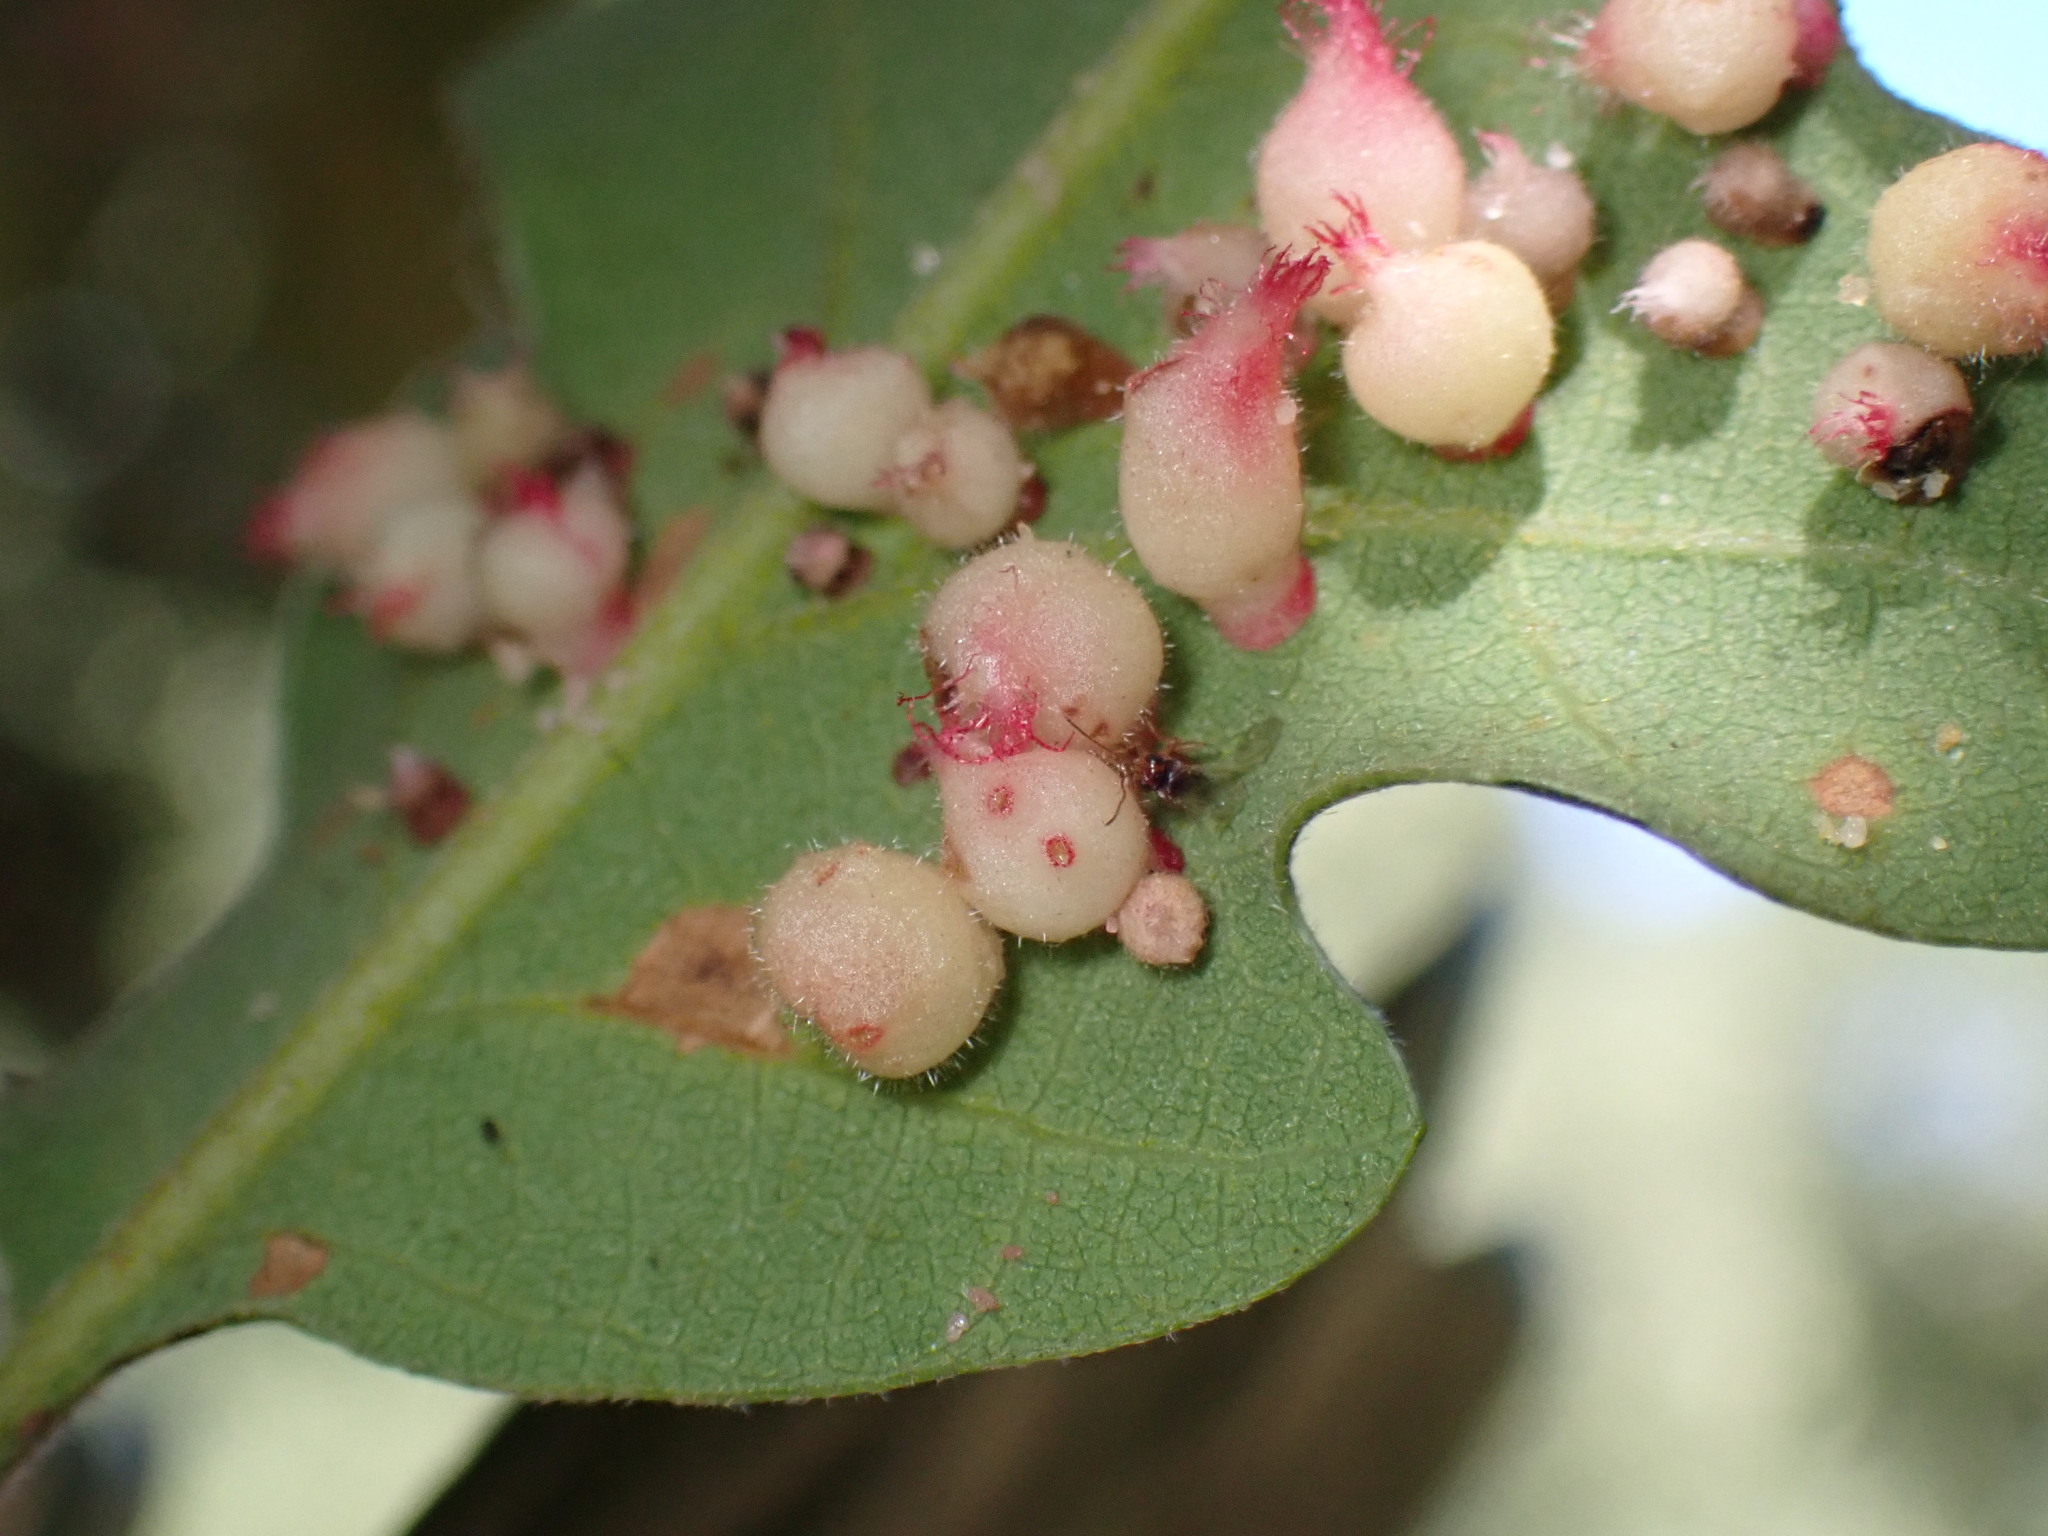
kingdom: Animalia
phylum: Arthropoda
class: Insecta
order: Hymenoptera
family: Cynipidae
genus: Andricus
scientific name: Andricus
